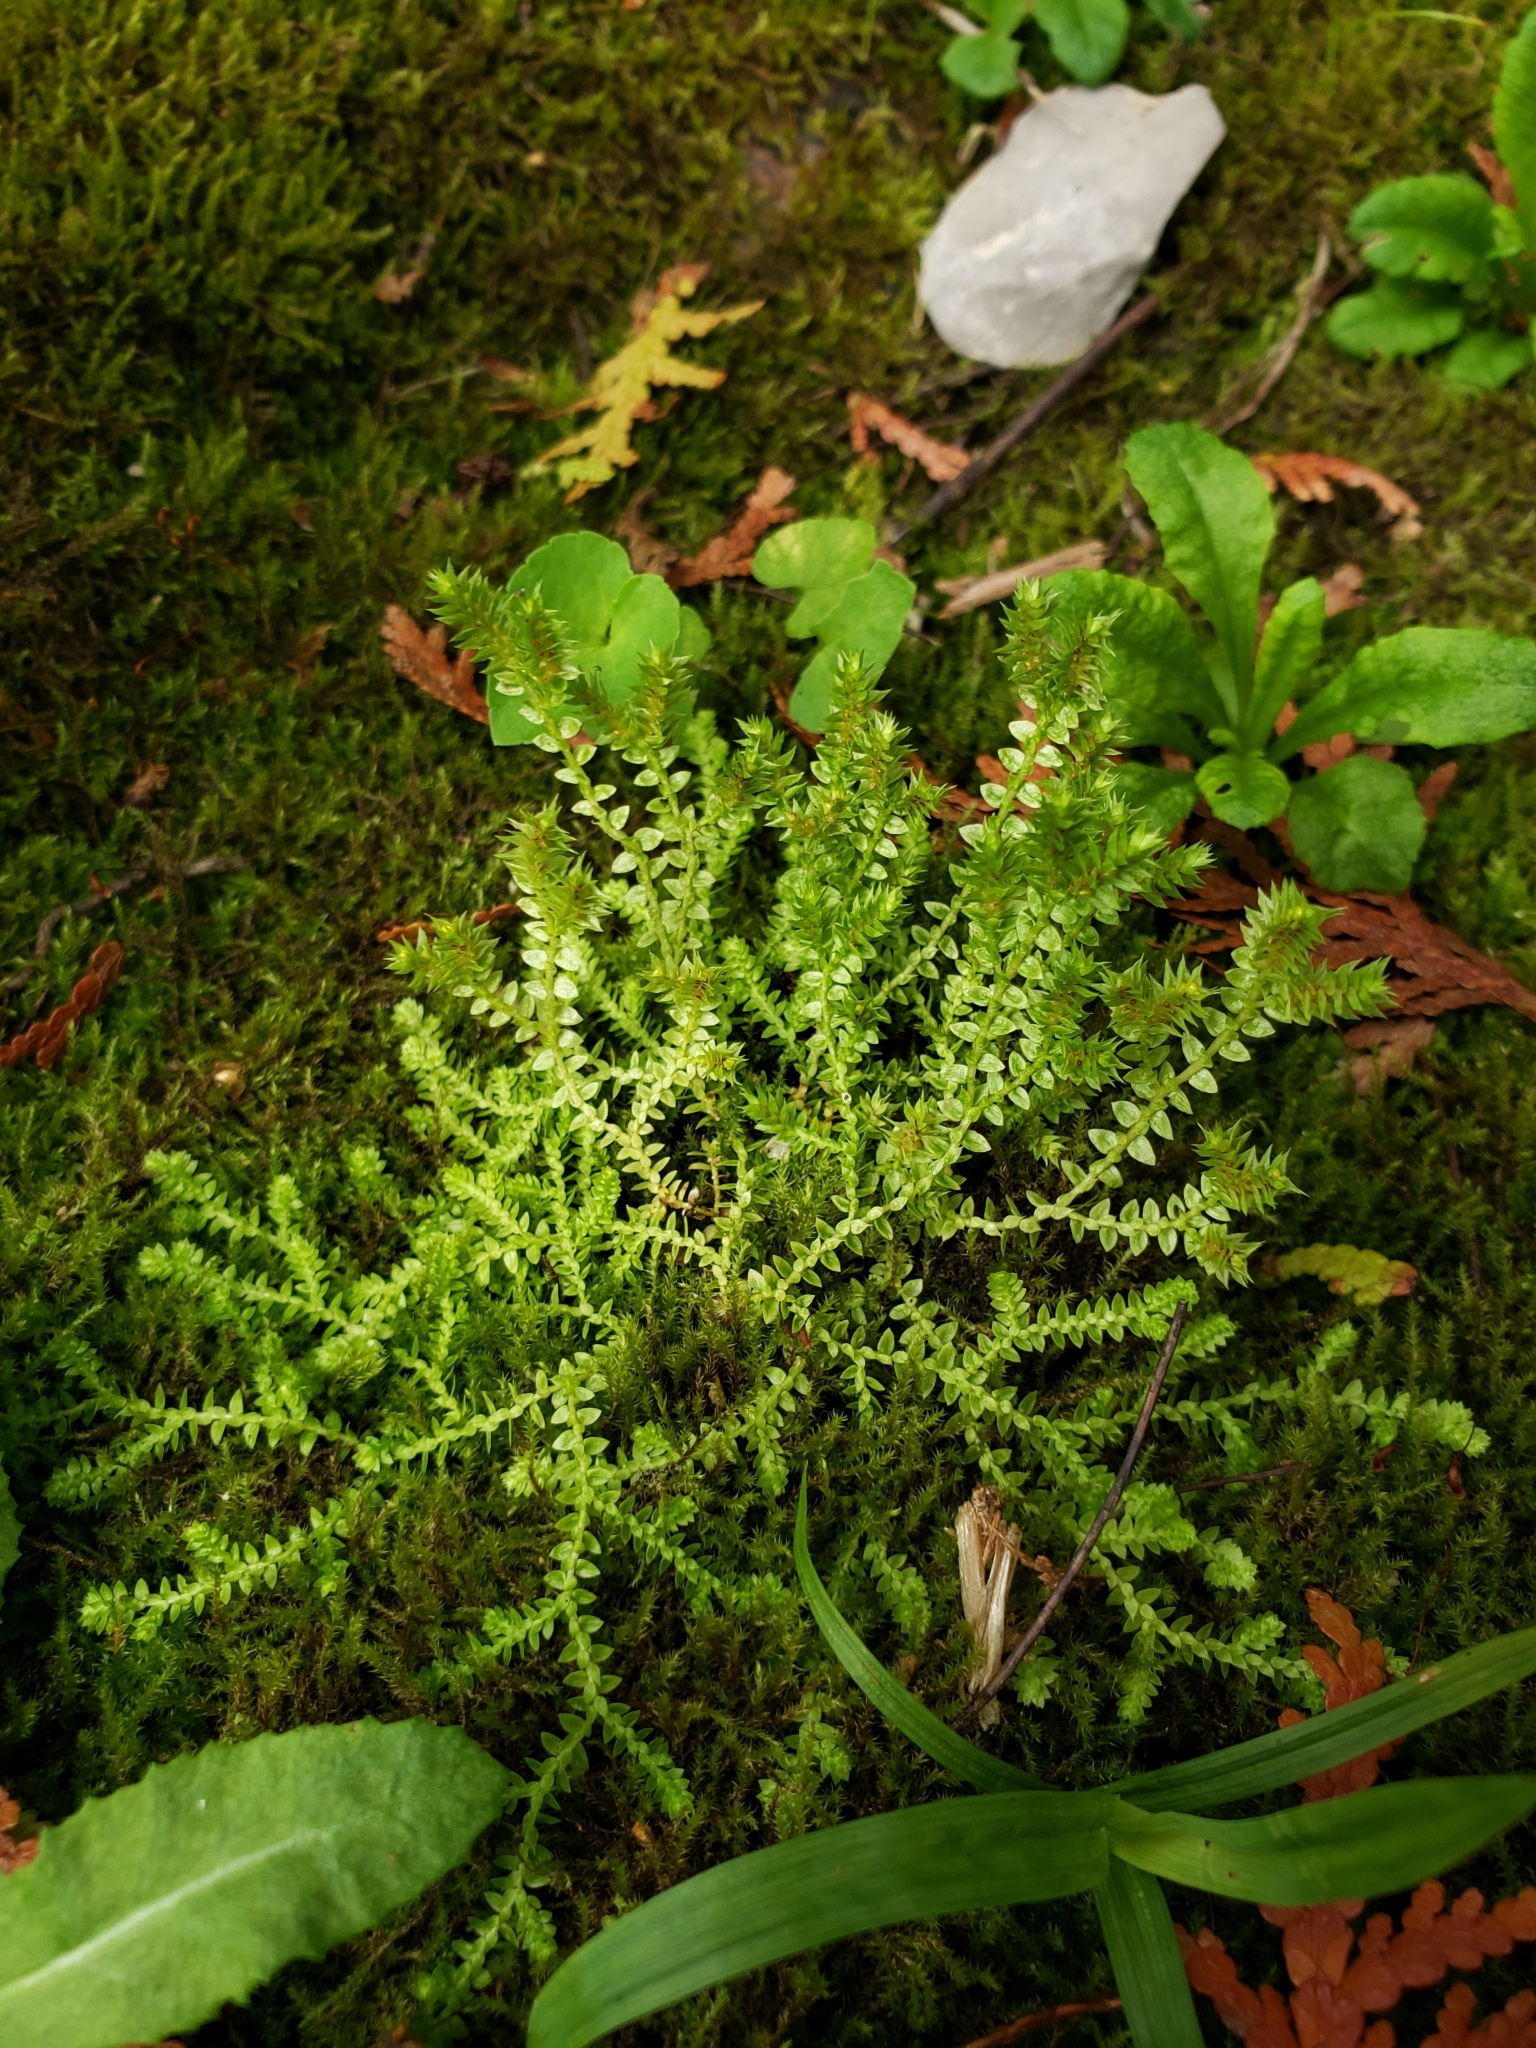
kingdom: Plantae
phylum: Tracheophyta
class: Lycopodiopsida
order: Selaginellales
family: Selaginellaceae
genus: Selaginella
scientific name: Selaginella eclipes
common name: Buck's meadow spikemoss
